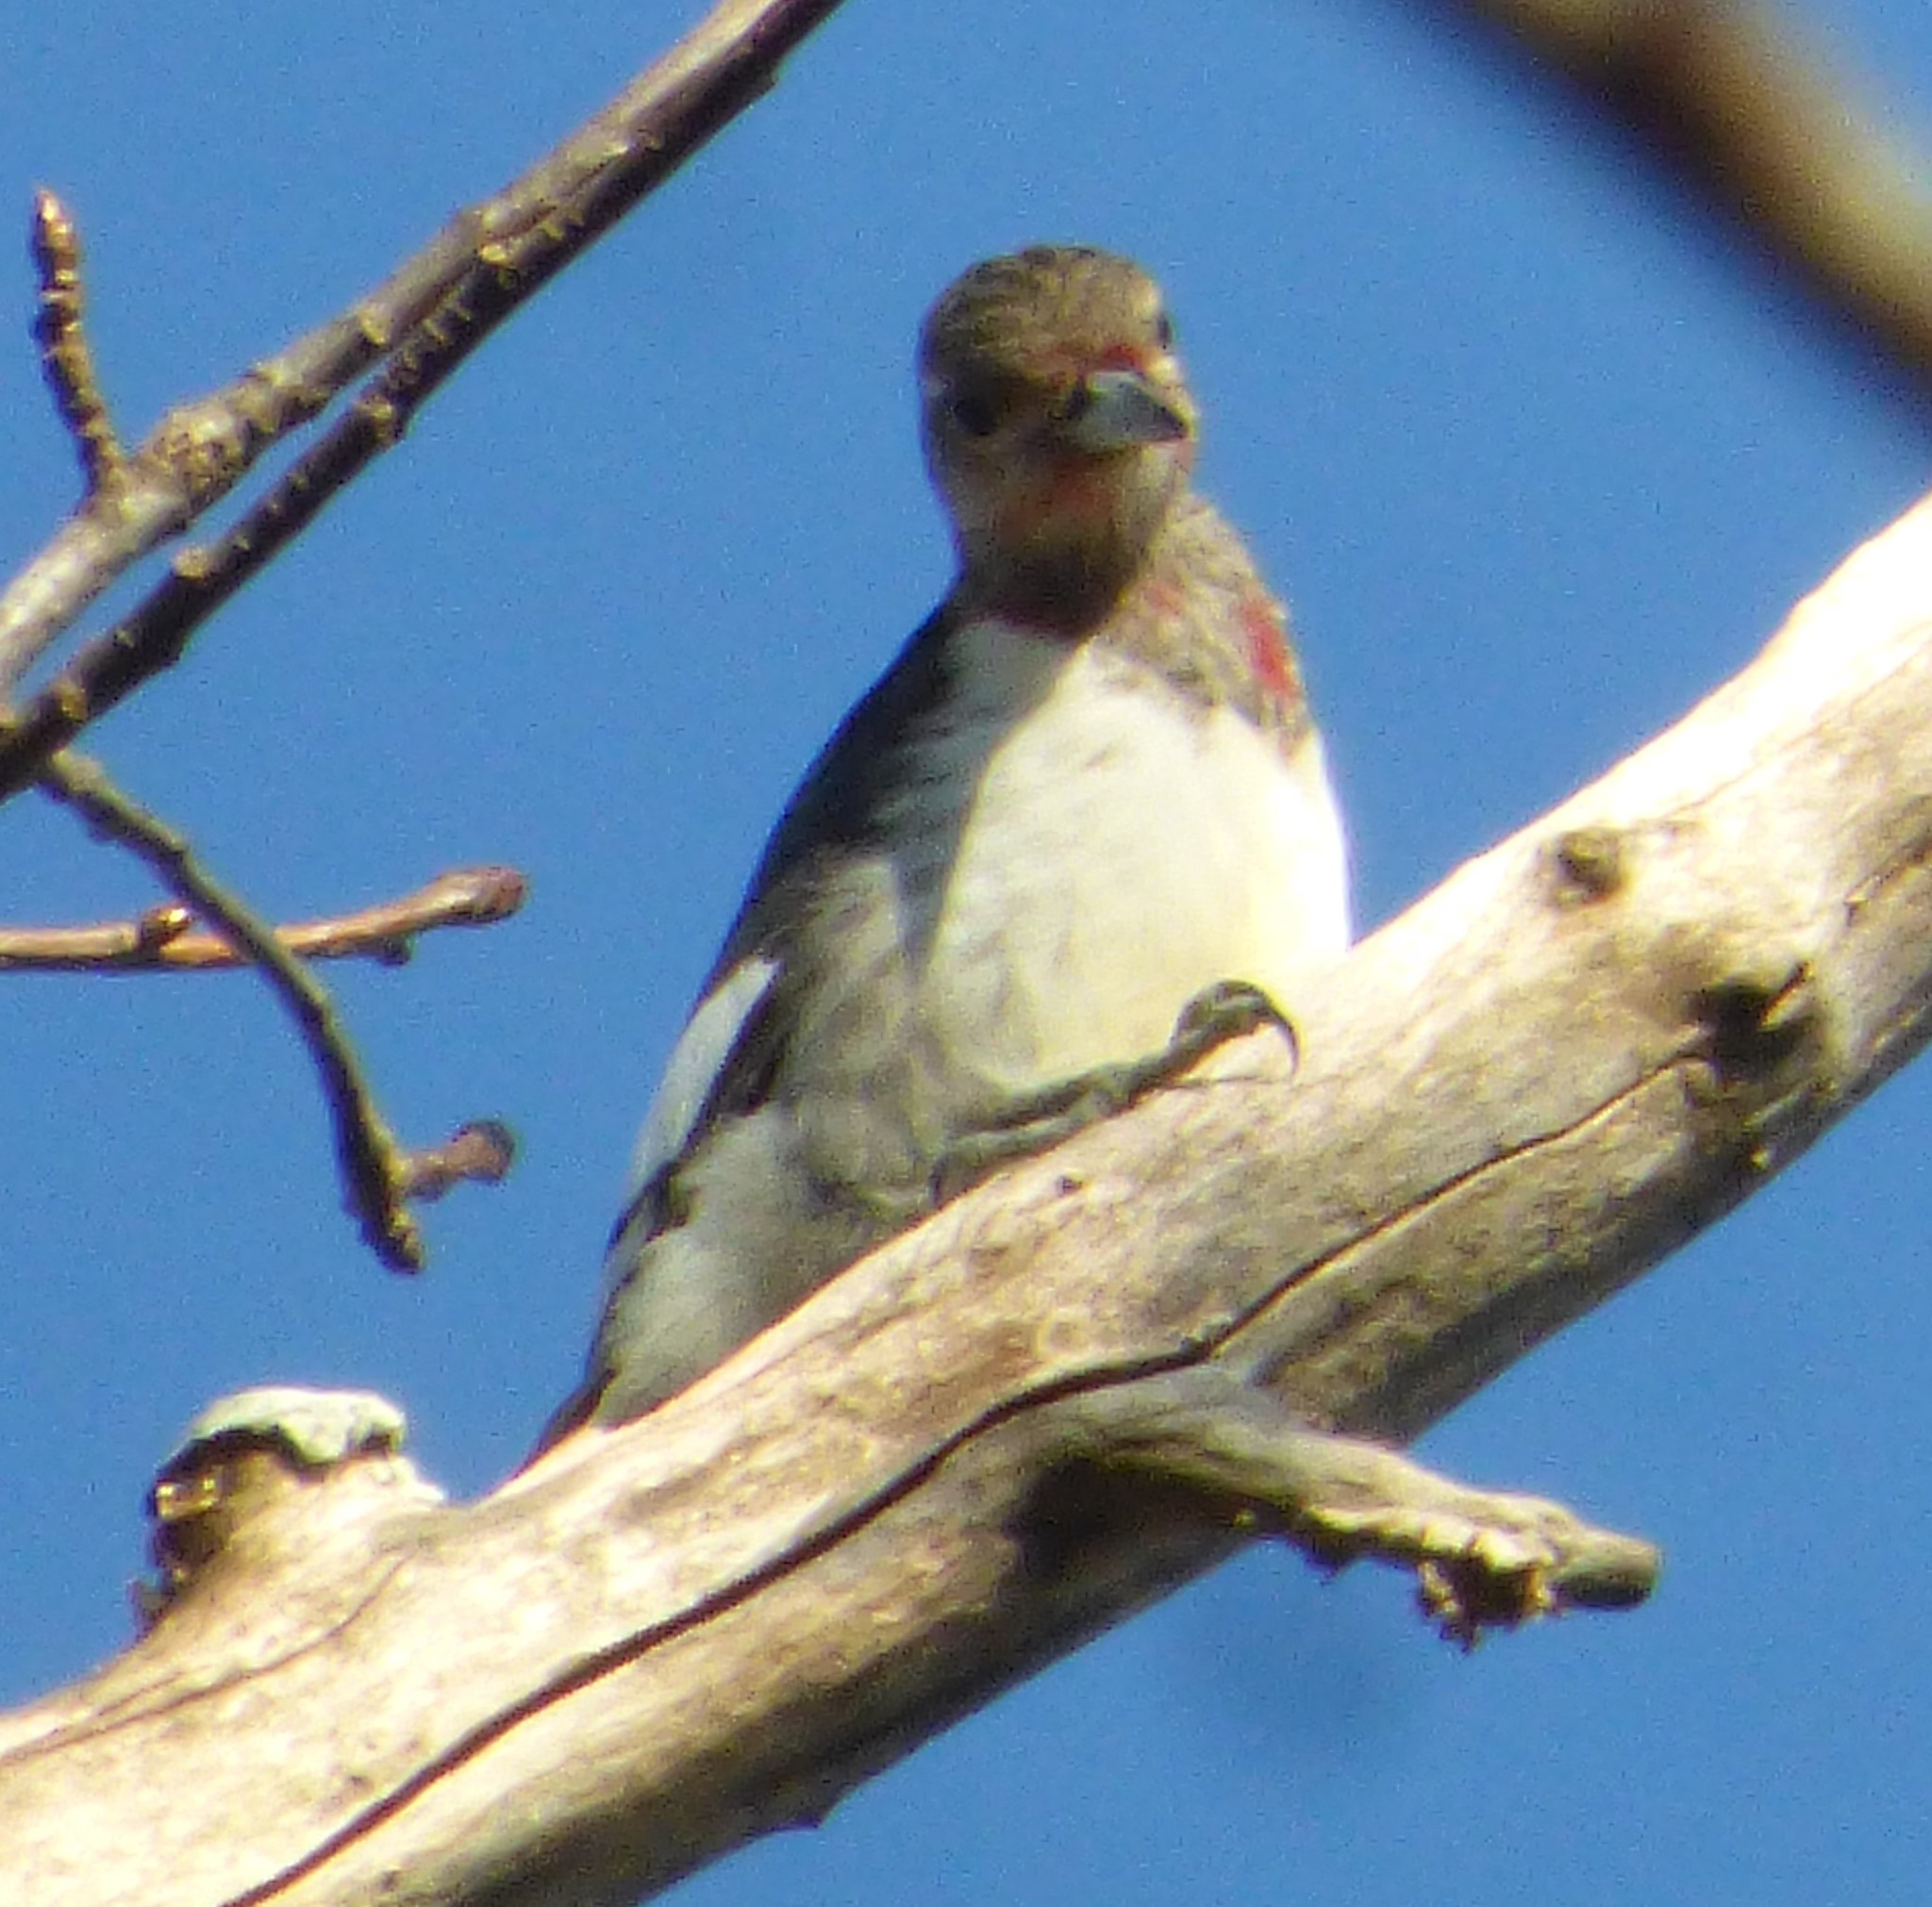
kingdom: Animalia
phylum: Chordata
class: Aves
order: Piciformes
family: Picidae
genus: Melanerpes
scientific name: Melanerpes erythrocephalus
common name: Red-headed woodpecker
